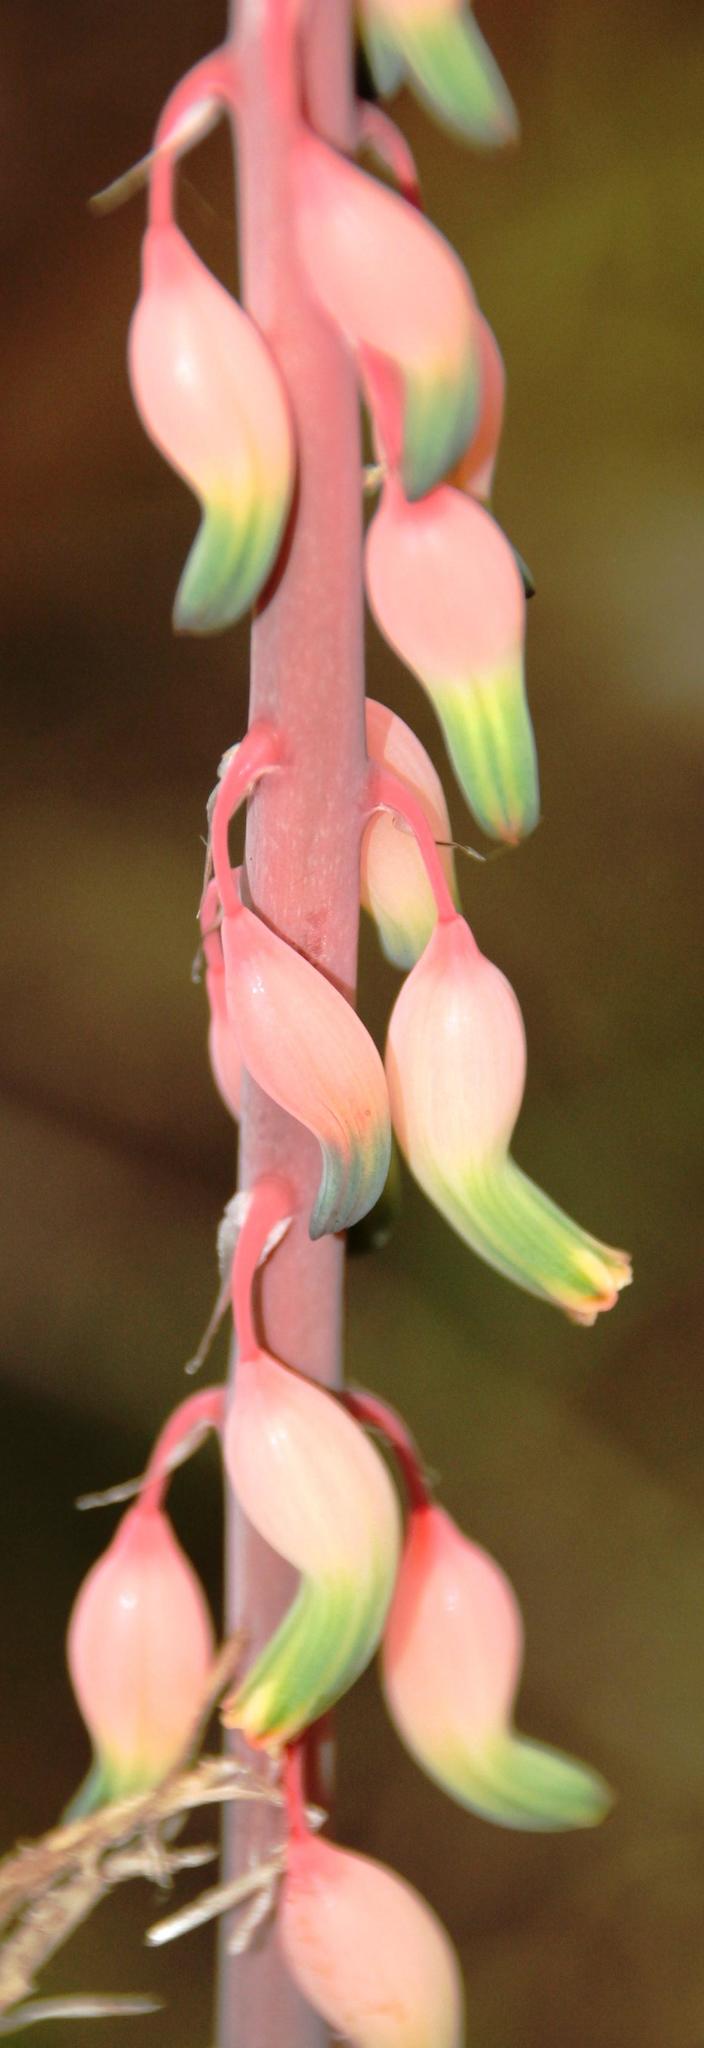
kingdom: Plantae
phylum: Tracheophyta
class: Liliopsida
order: Asparagales
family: Asphodelaceae
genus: Gasteria
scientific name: Gasteria obliqua
